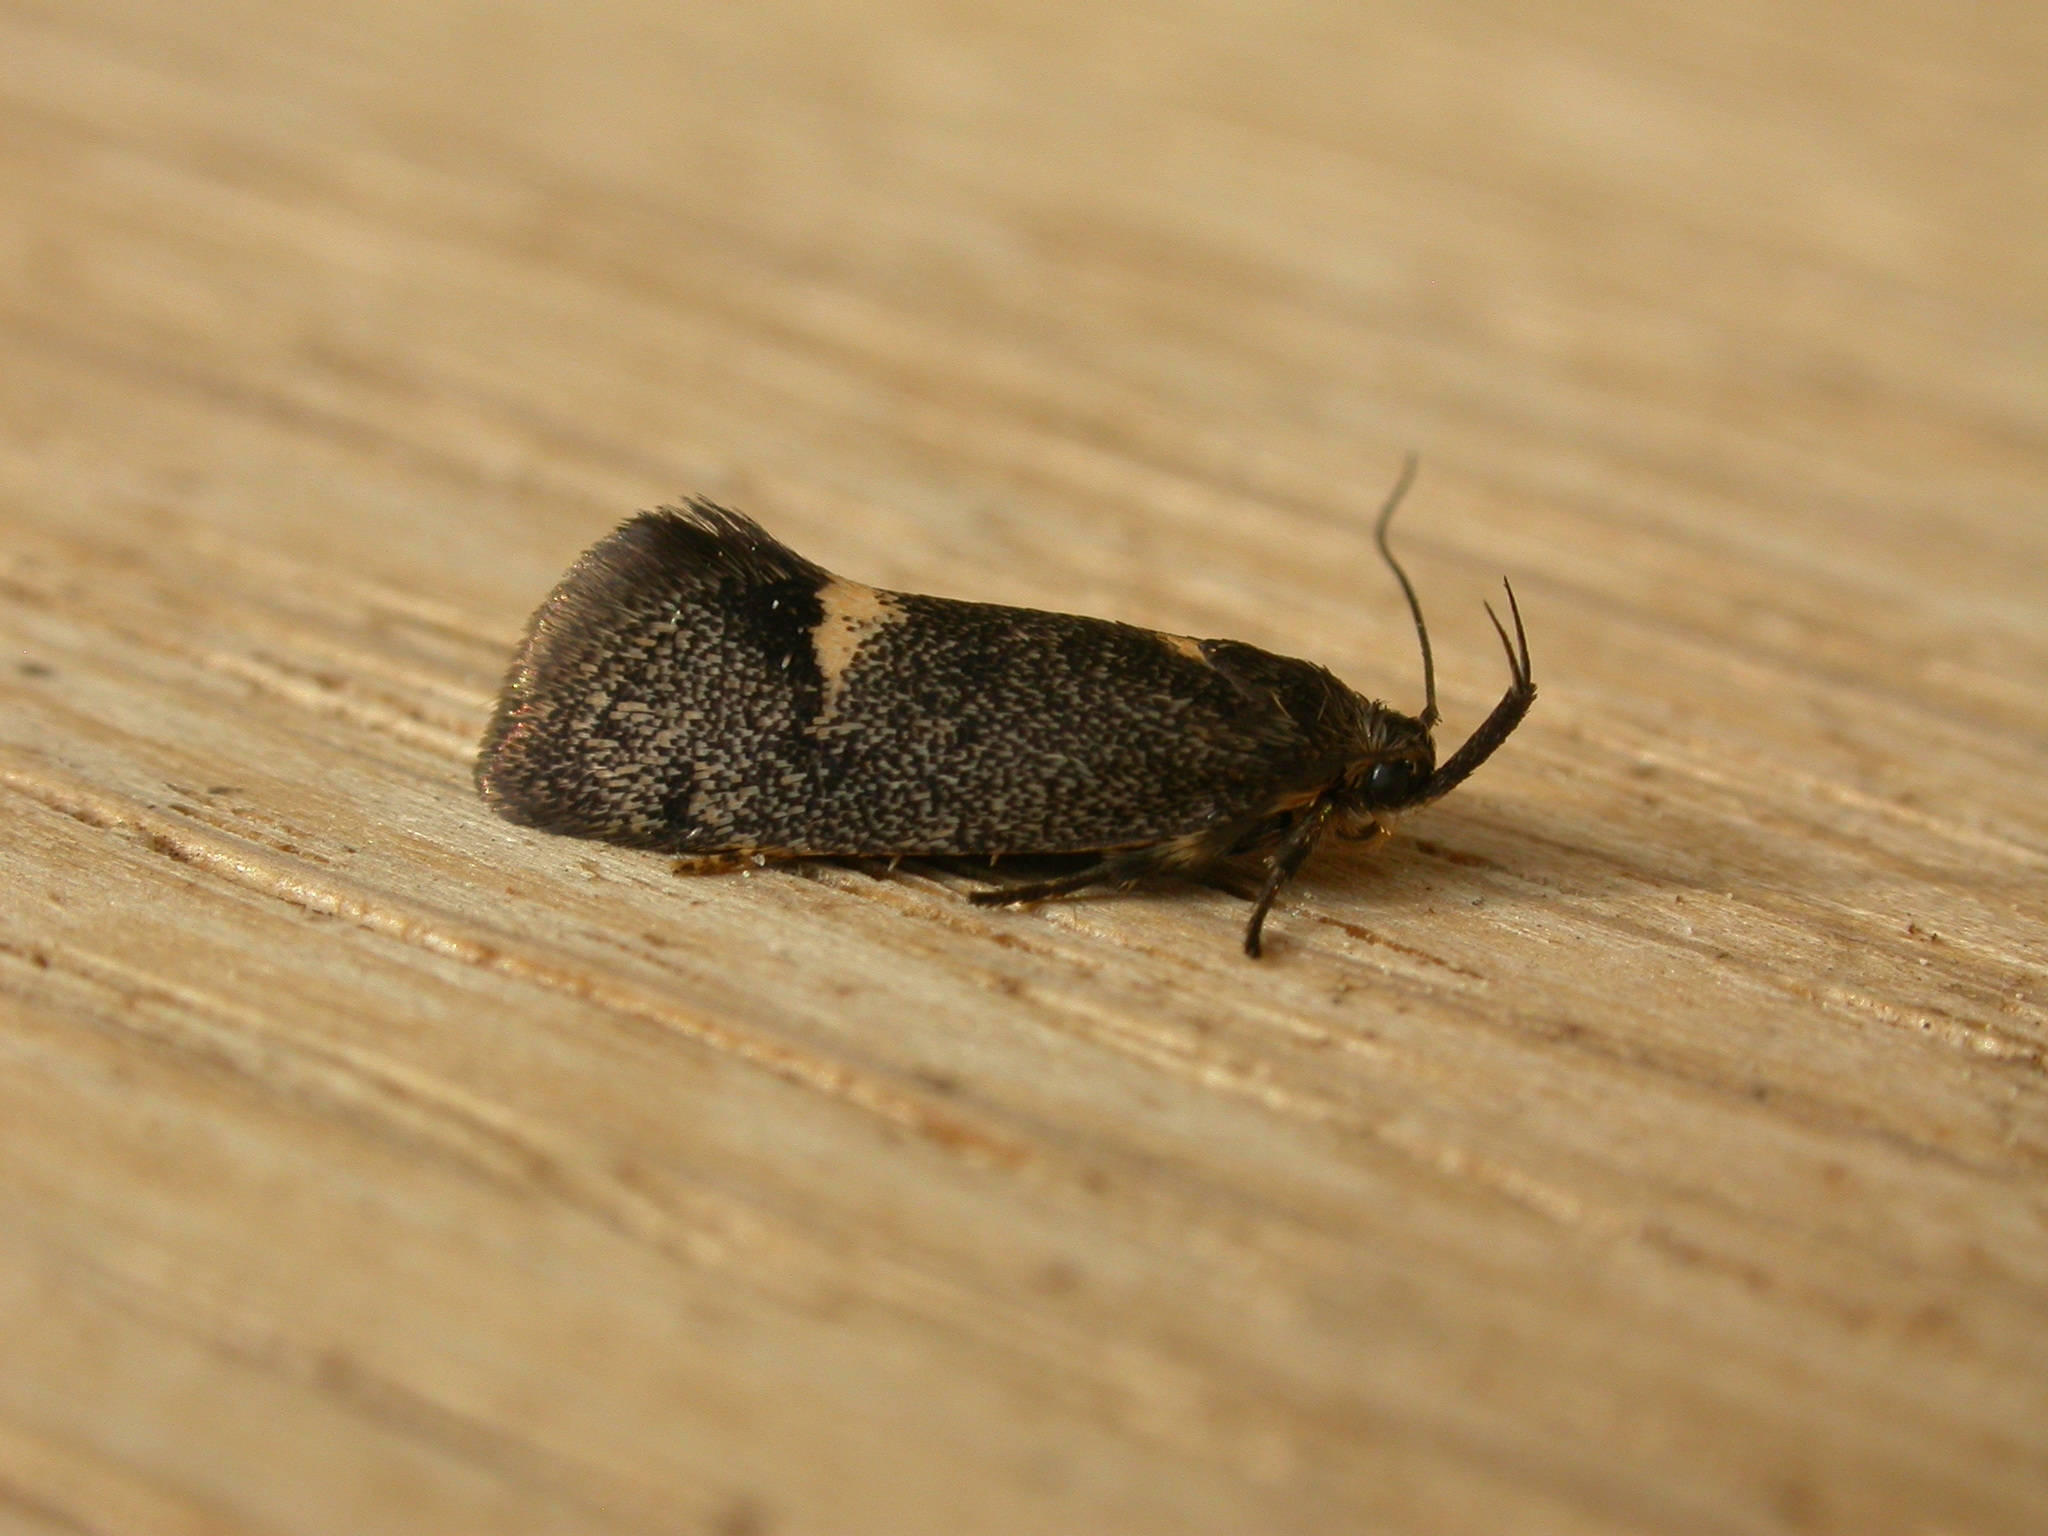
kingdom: Animalia
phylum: Arthropoda
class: Insecta
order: Lepidoptera
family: Oecophoridae
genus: Leistomorpha
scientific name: Leistomorpha brontoscopa
